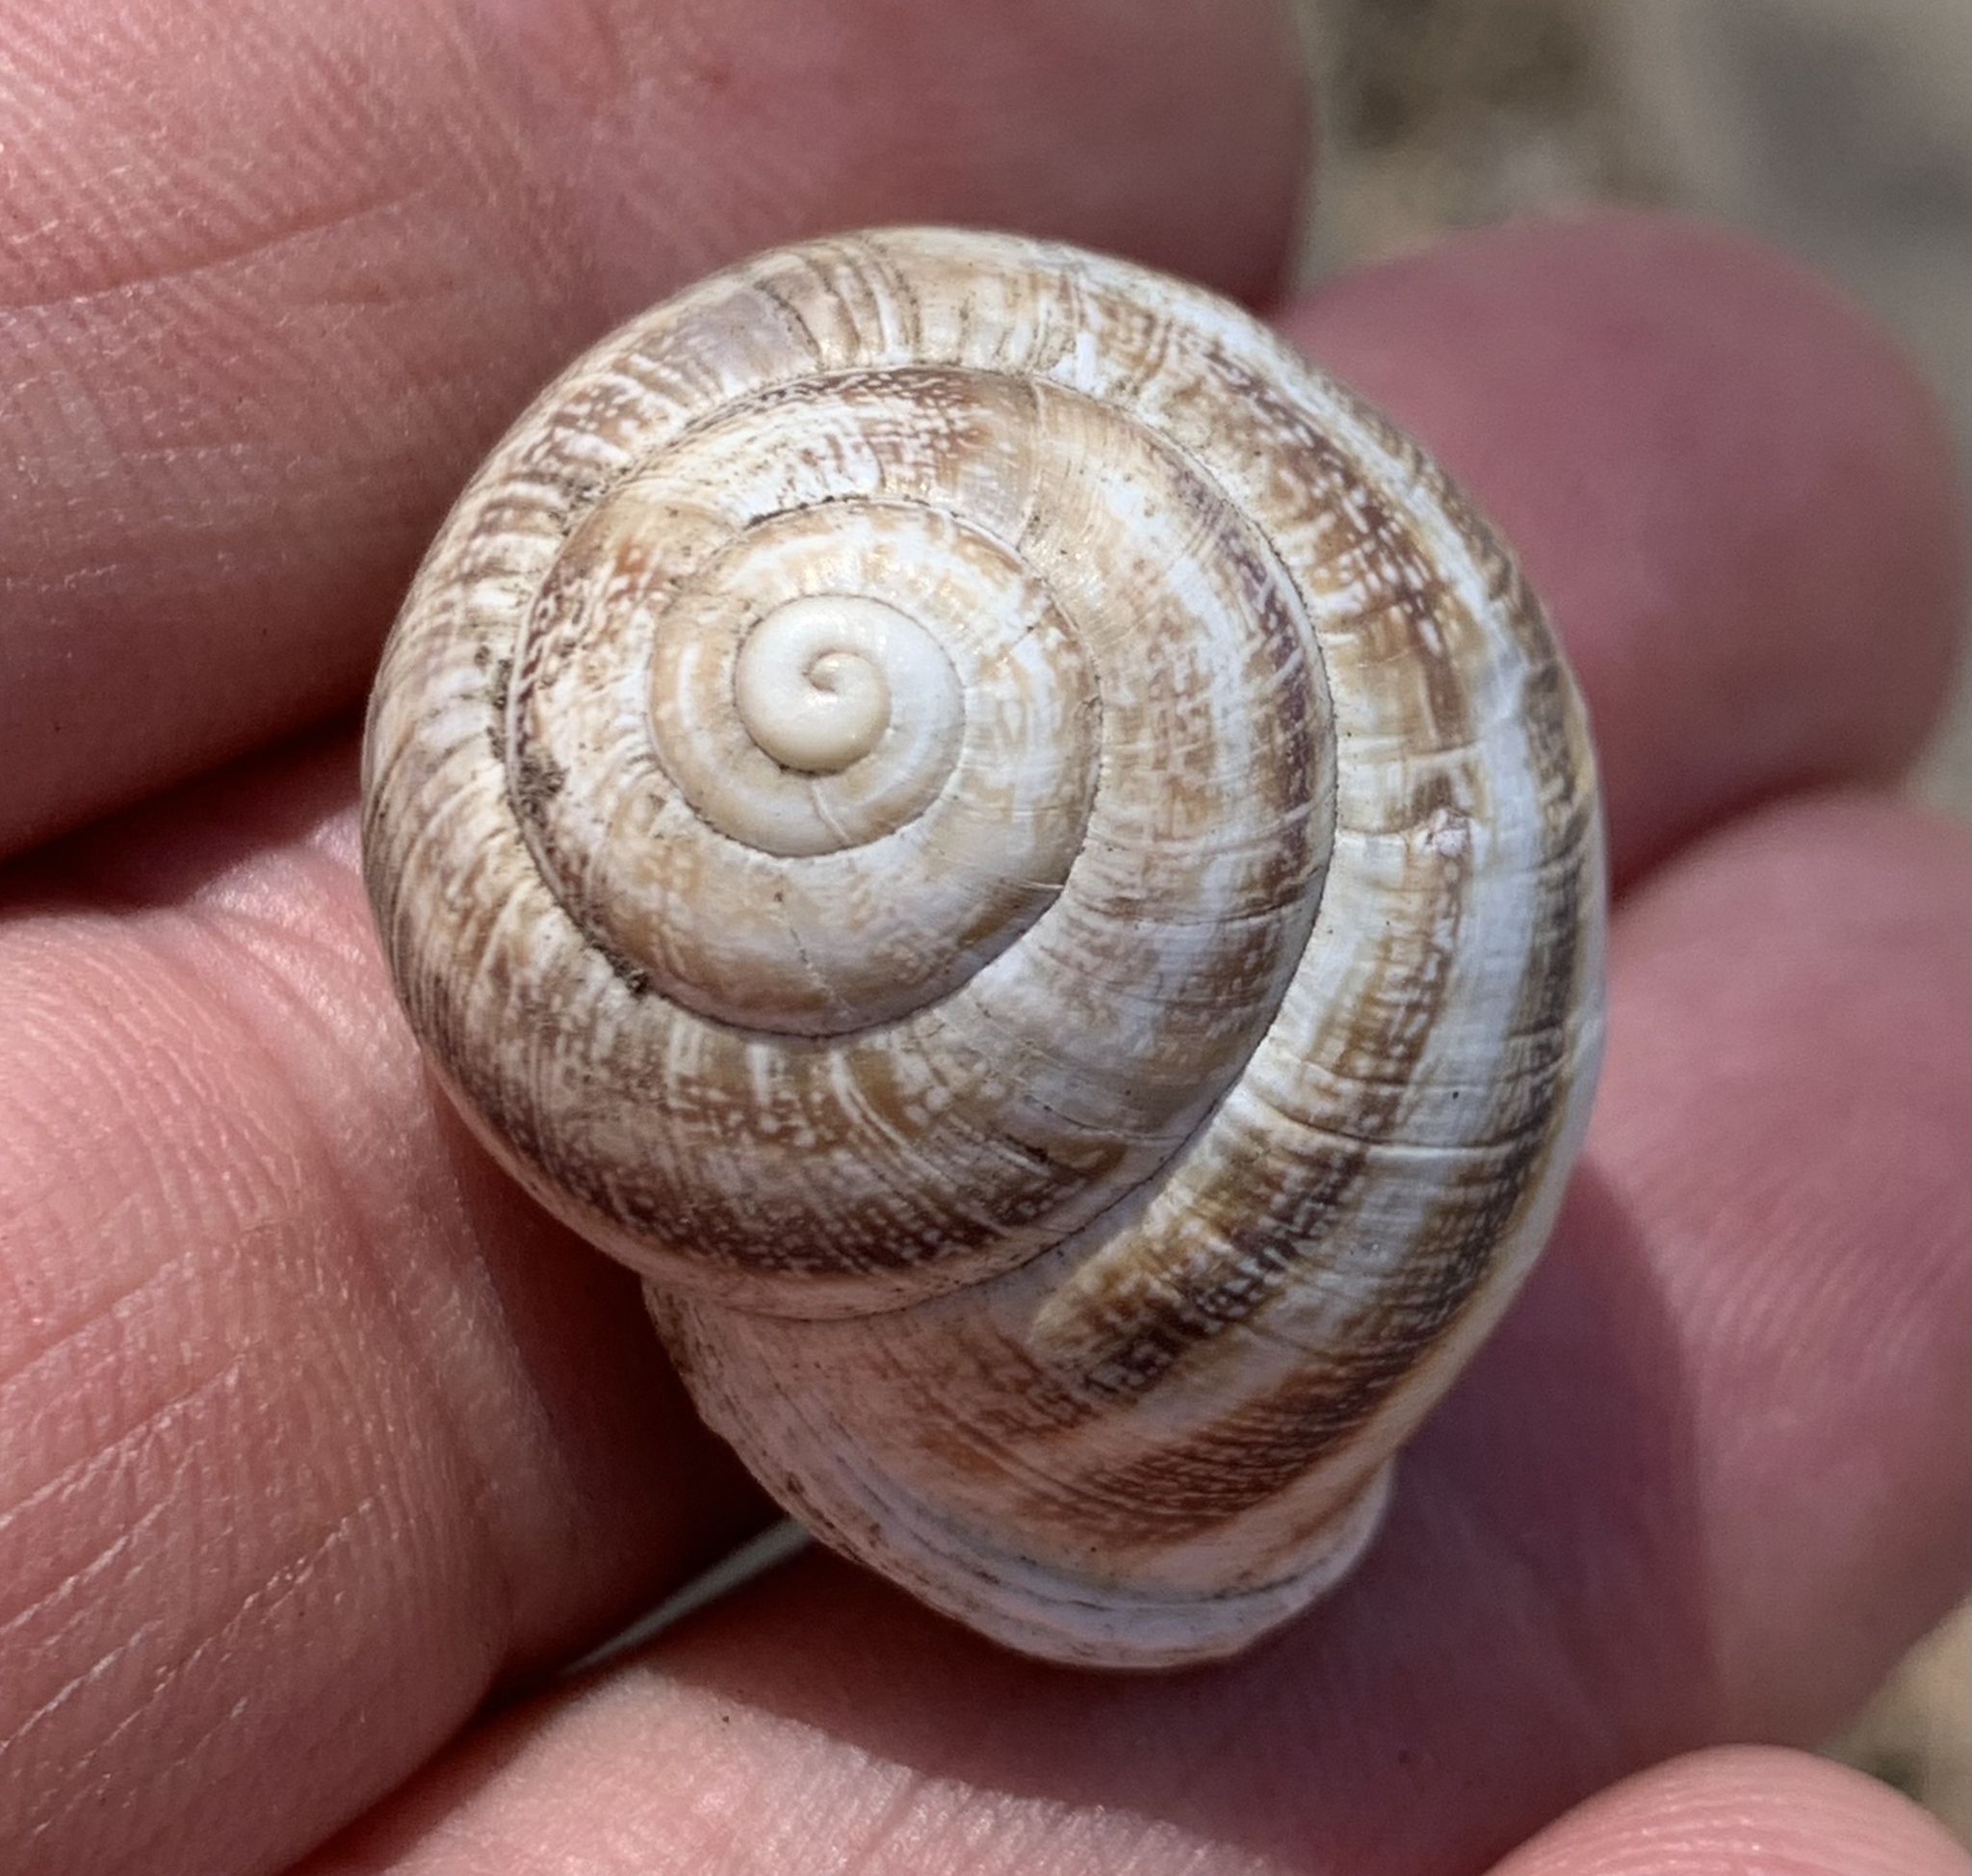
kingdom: Animalia
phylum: Mollusca
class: Gastropoda
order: Stylommatophora
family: Helicidae
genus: Otala
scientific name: Otala lactea
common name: Milk snail
